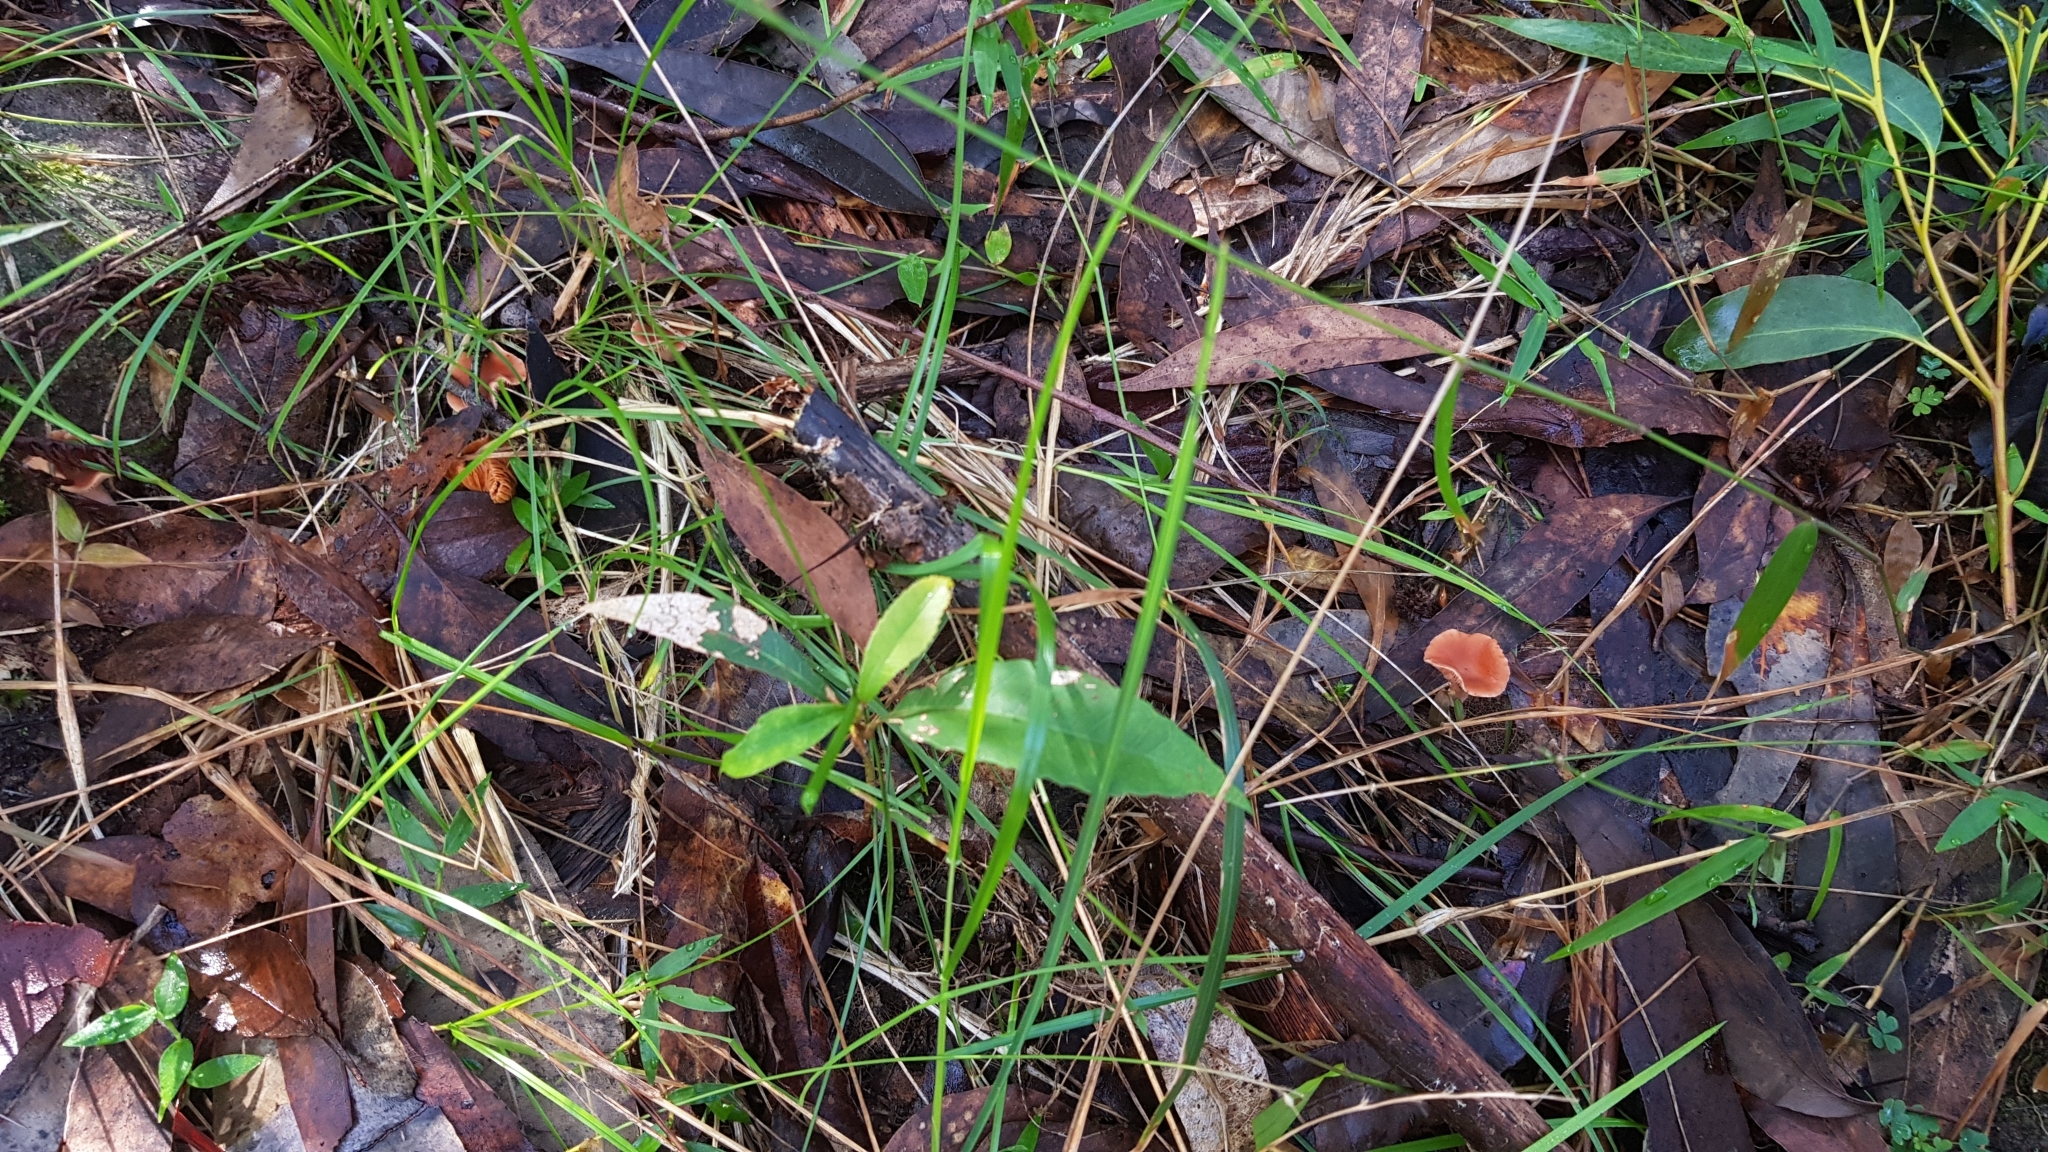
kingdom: Fungi
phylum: Basidiomycota
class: Agaricomycetes
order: Russulales
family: Russulaceae
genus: Lactarius
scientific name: Lactarius eucalypti
